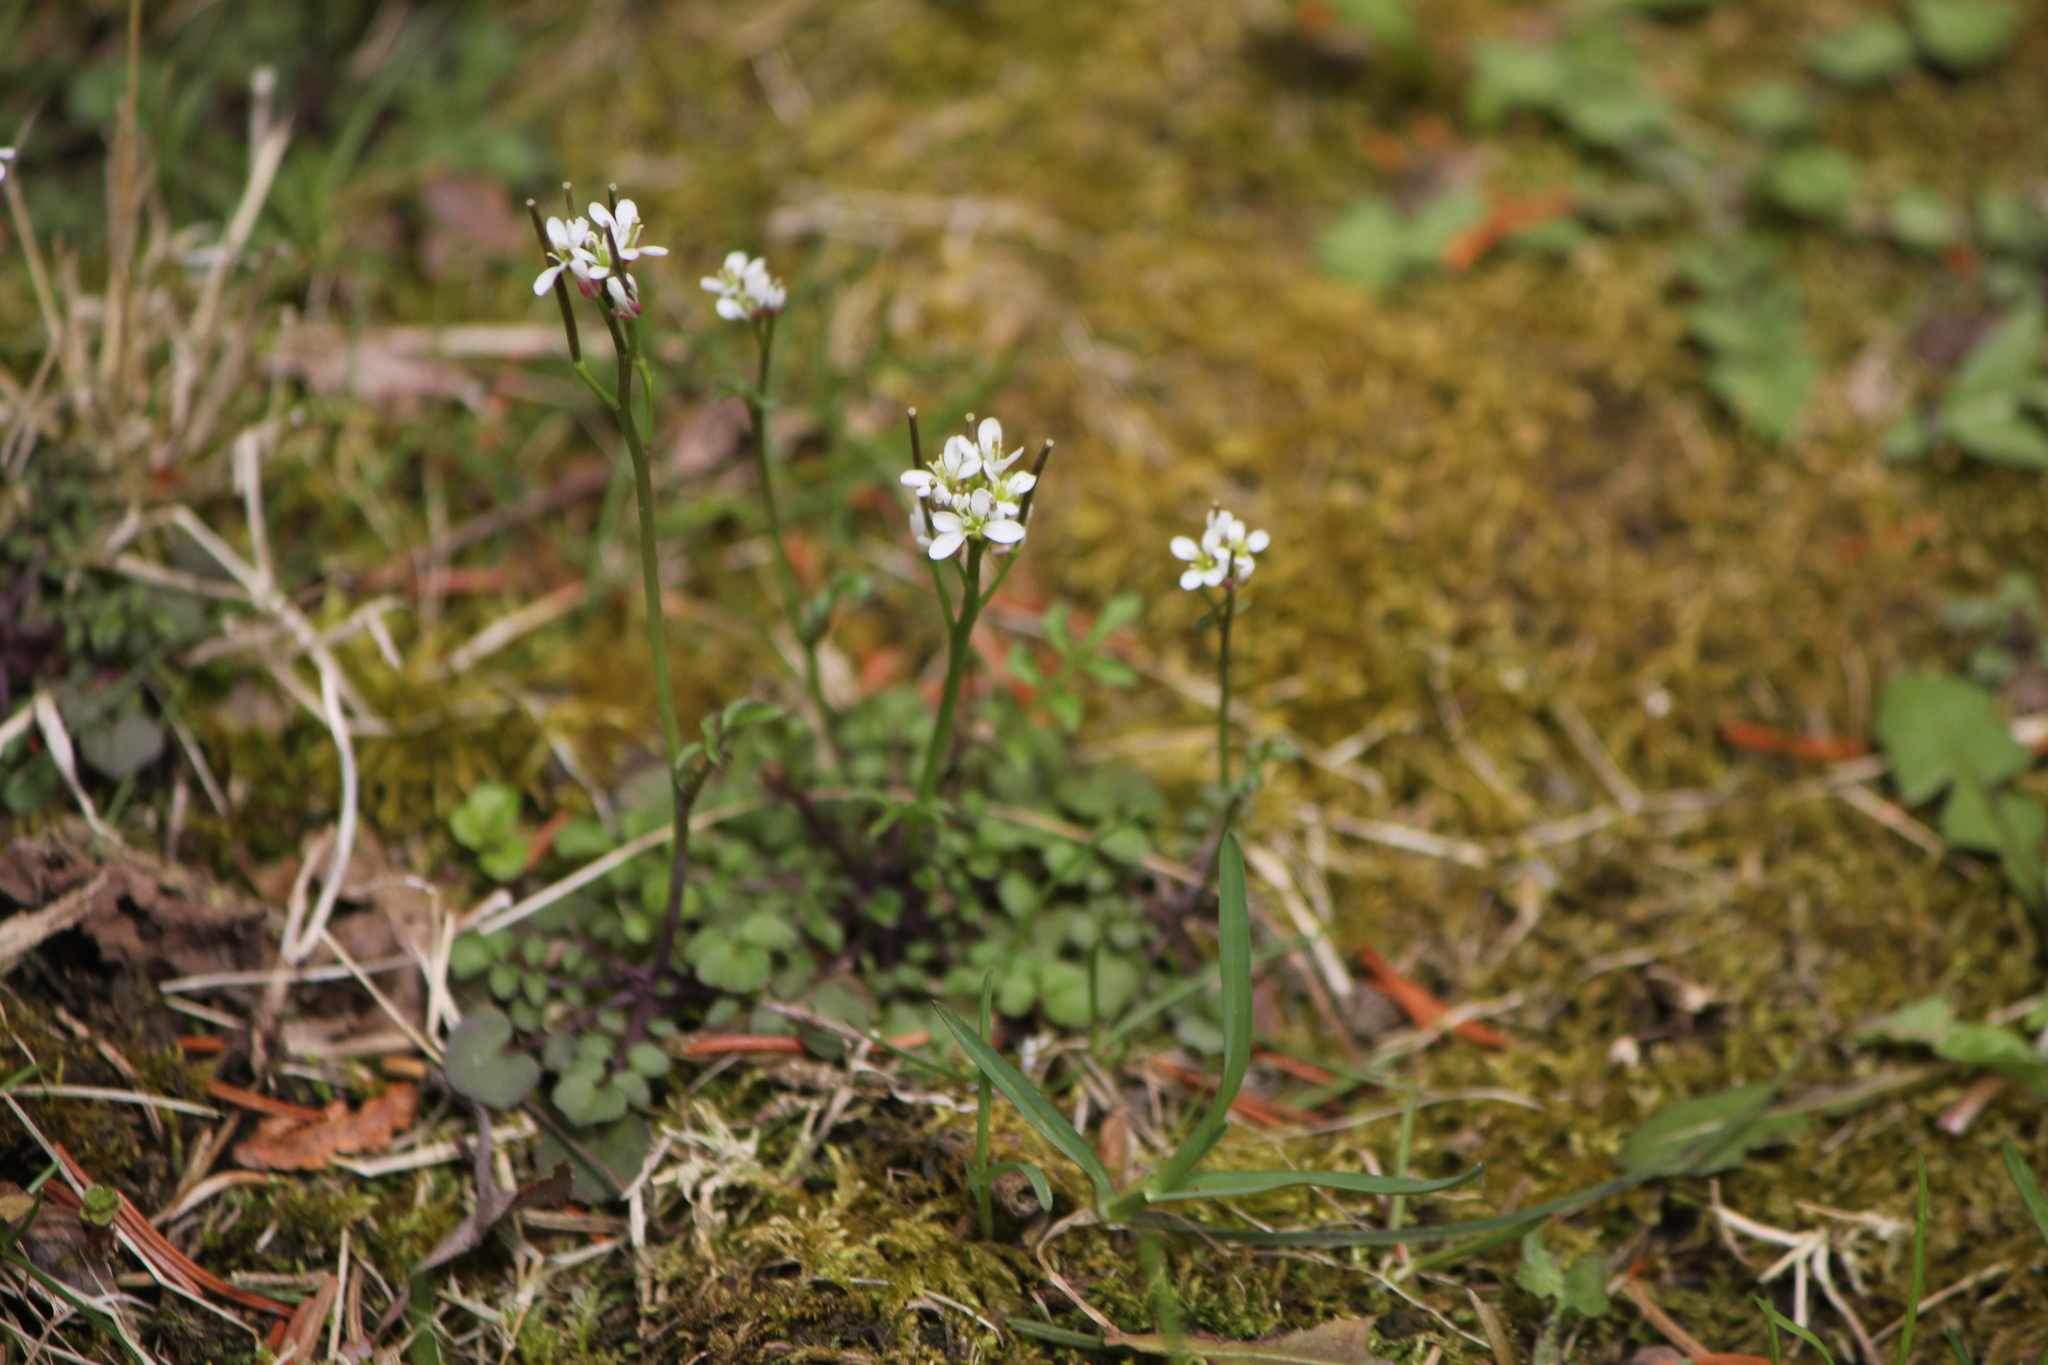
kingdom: Plantae
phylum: Tracheophyta
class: Magnoliopsida
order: Brassicales
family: Brassicaceae
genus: Cardamine
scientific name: Cardamine hirsuta
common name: Hairy bittercress
